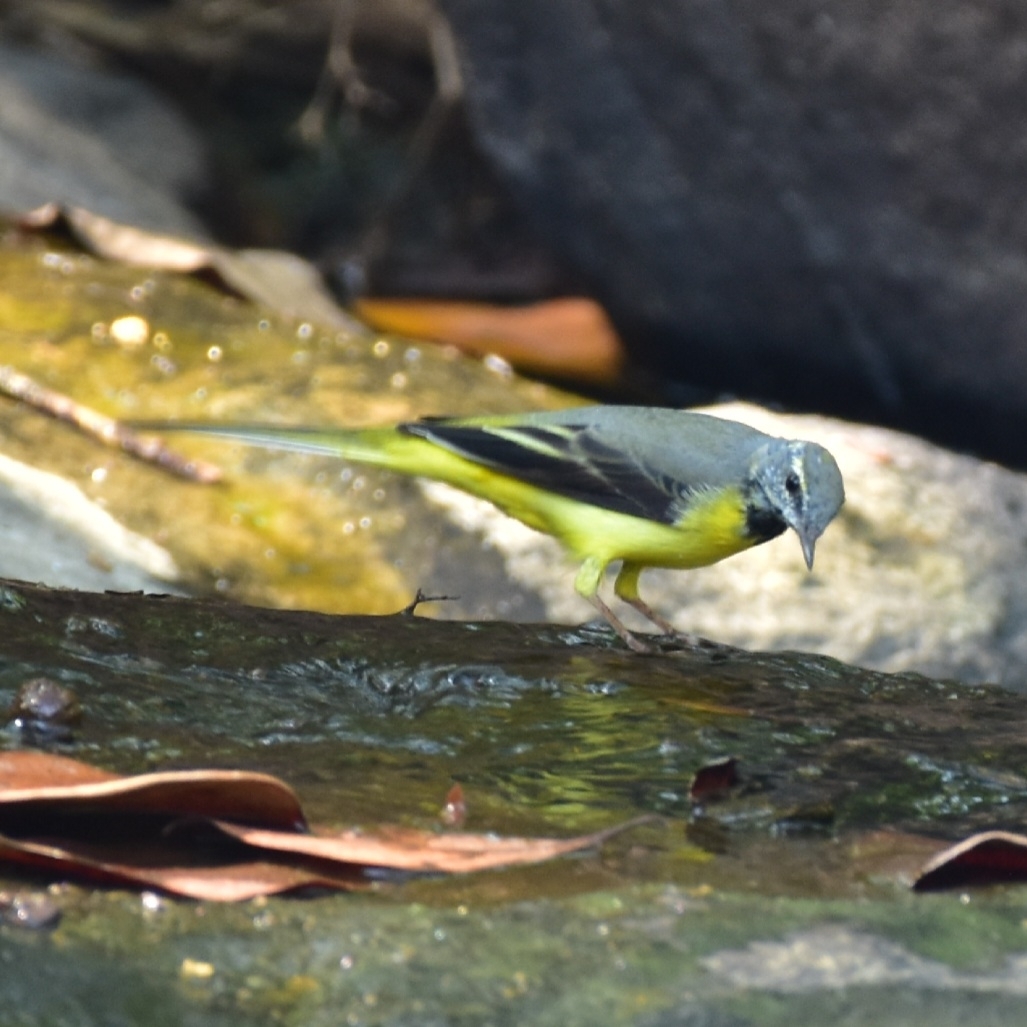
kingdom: Animalia
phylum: Chordata
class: Aves
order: Passeriformes
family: Motacillidae
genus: Motacilla
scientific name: Motacilla cinerea
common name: Grey wagtail
